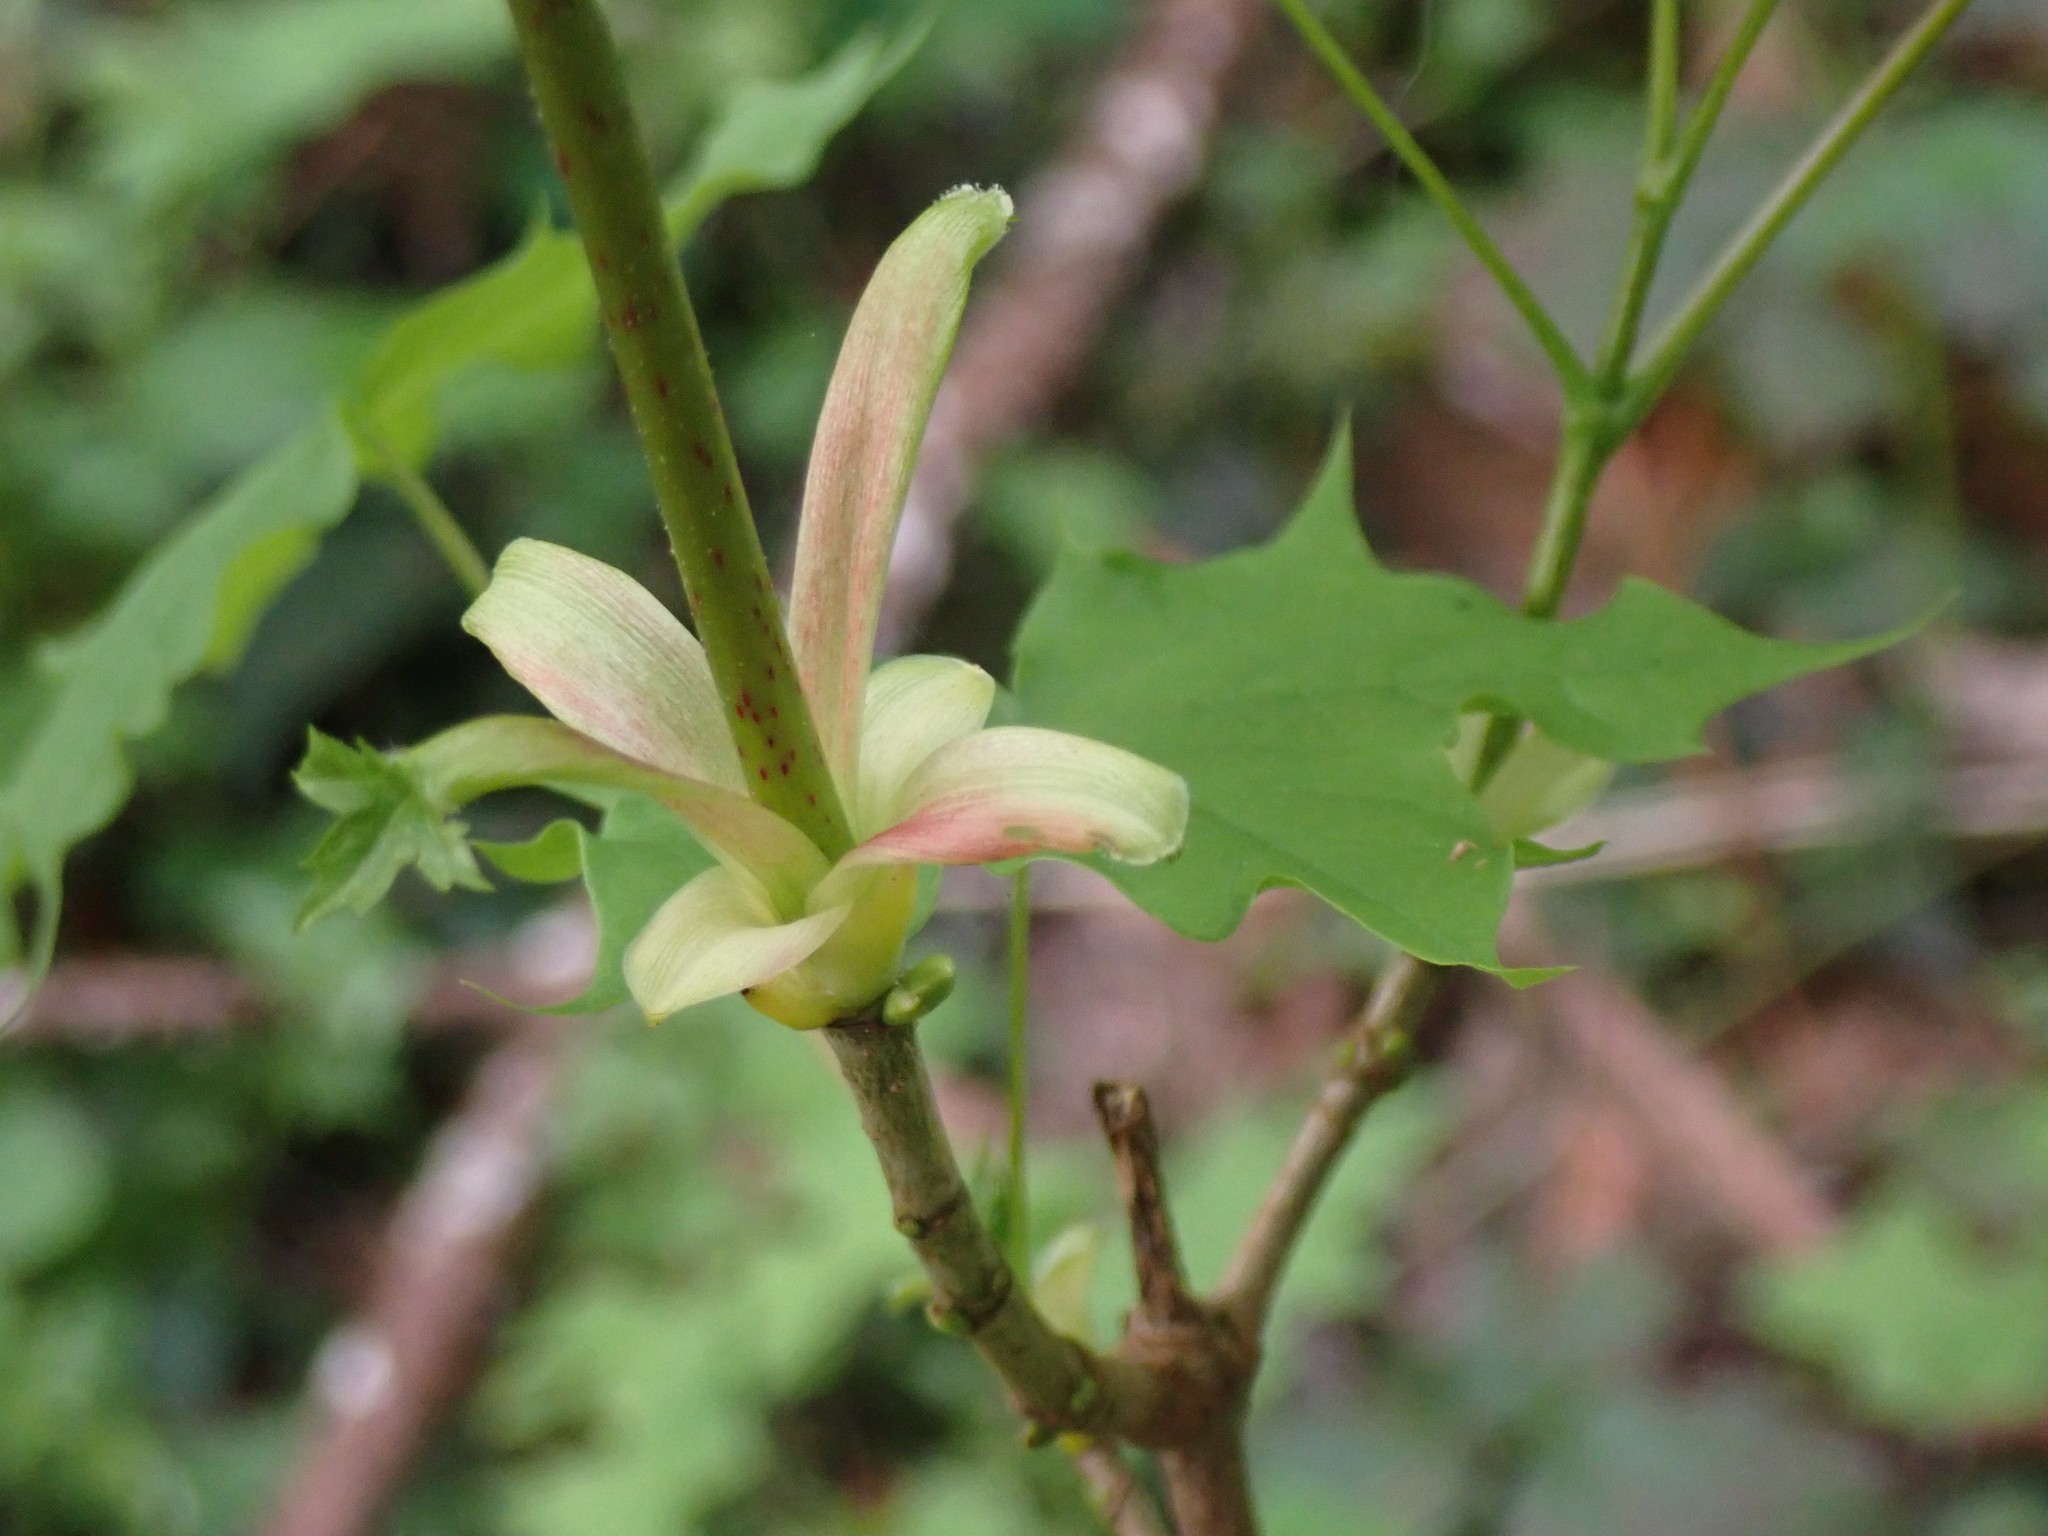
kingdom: Plantae
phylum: Tracheophyta
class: Magnoliopsida
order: Sapindales
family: Sapindaceae
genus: Acer
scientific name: Acer macrophyllum
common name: Oregon maple
